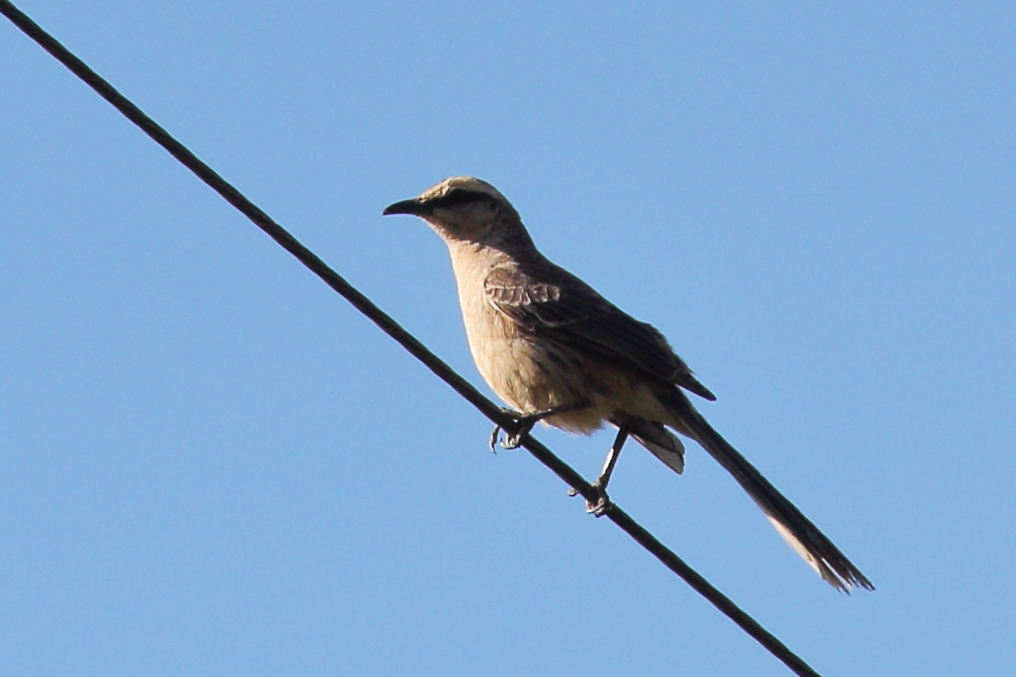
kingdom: Animalia
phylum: Chordata
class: Aves
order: Passeriformes
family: Mimidae
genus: Mimus
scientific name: Mimus saturninus
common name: Chalk-browed mockingbird
